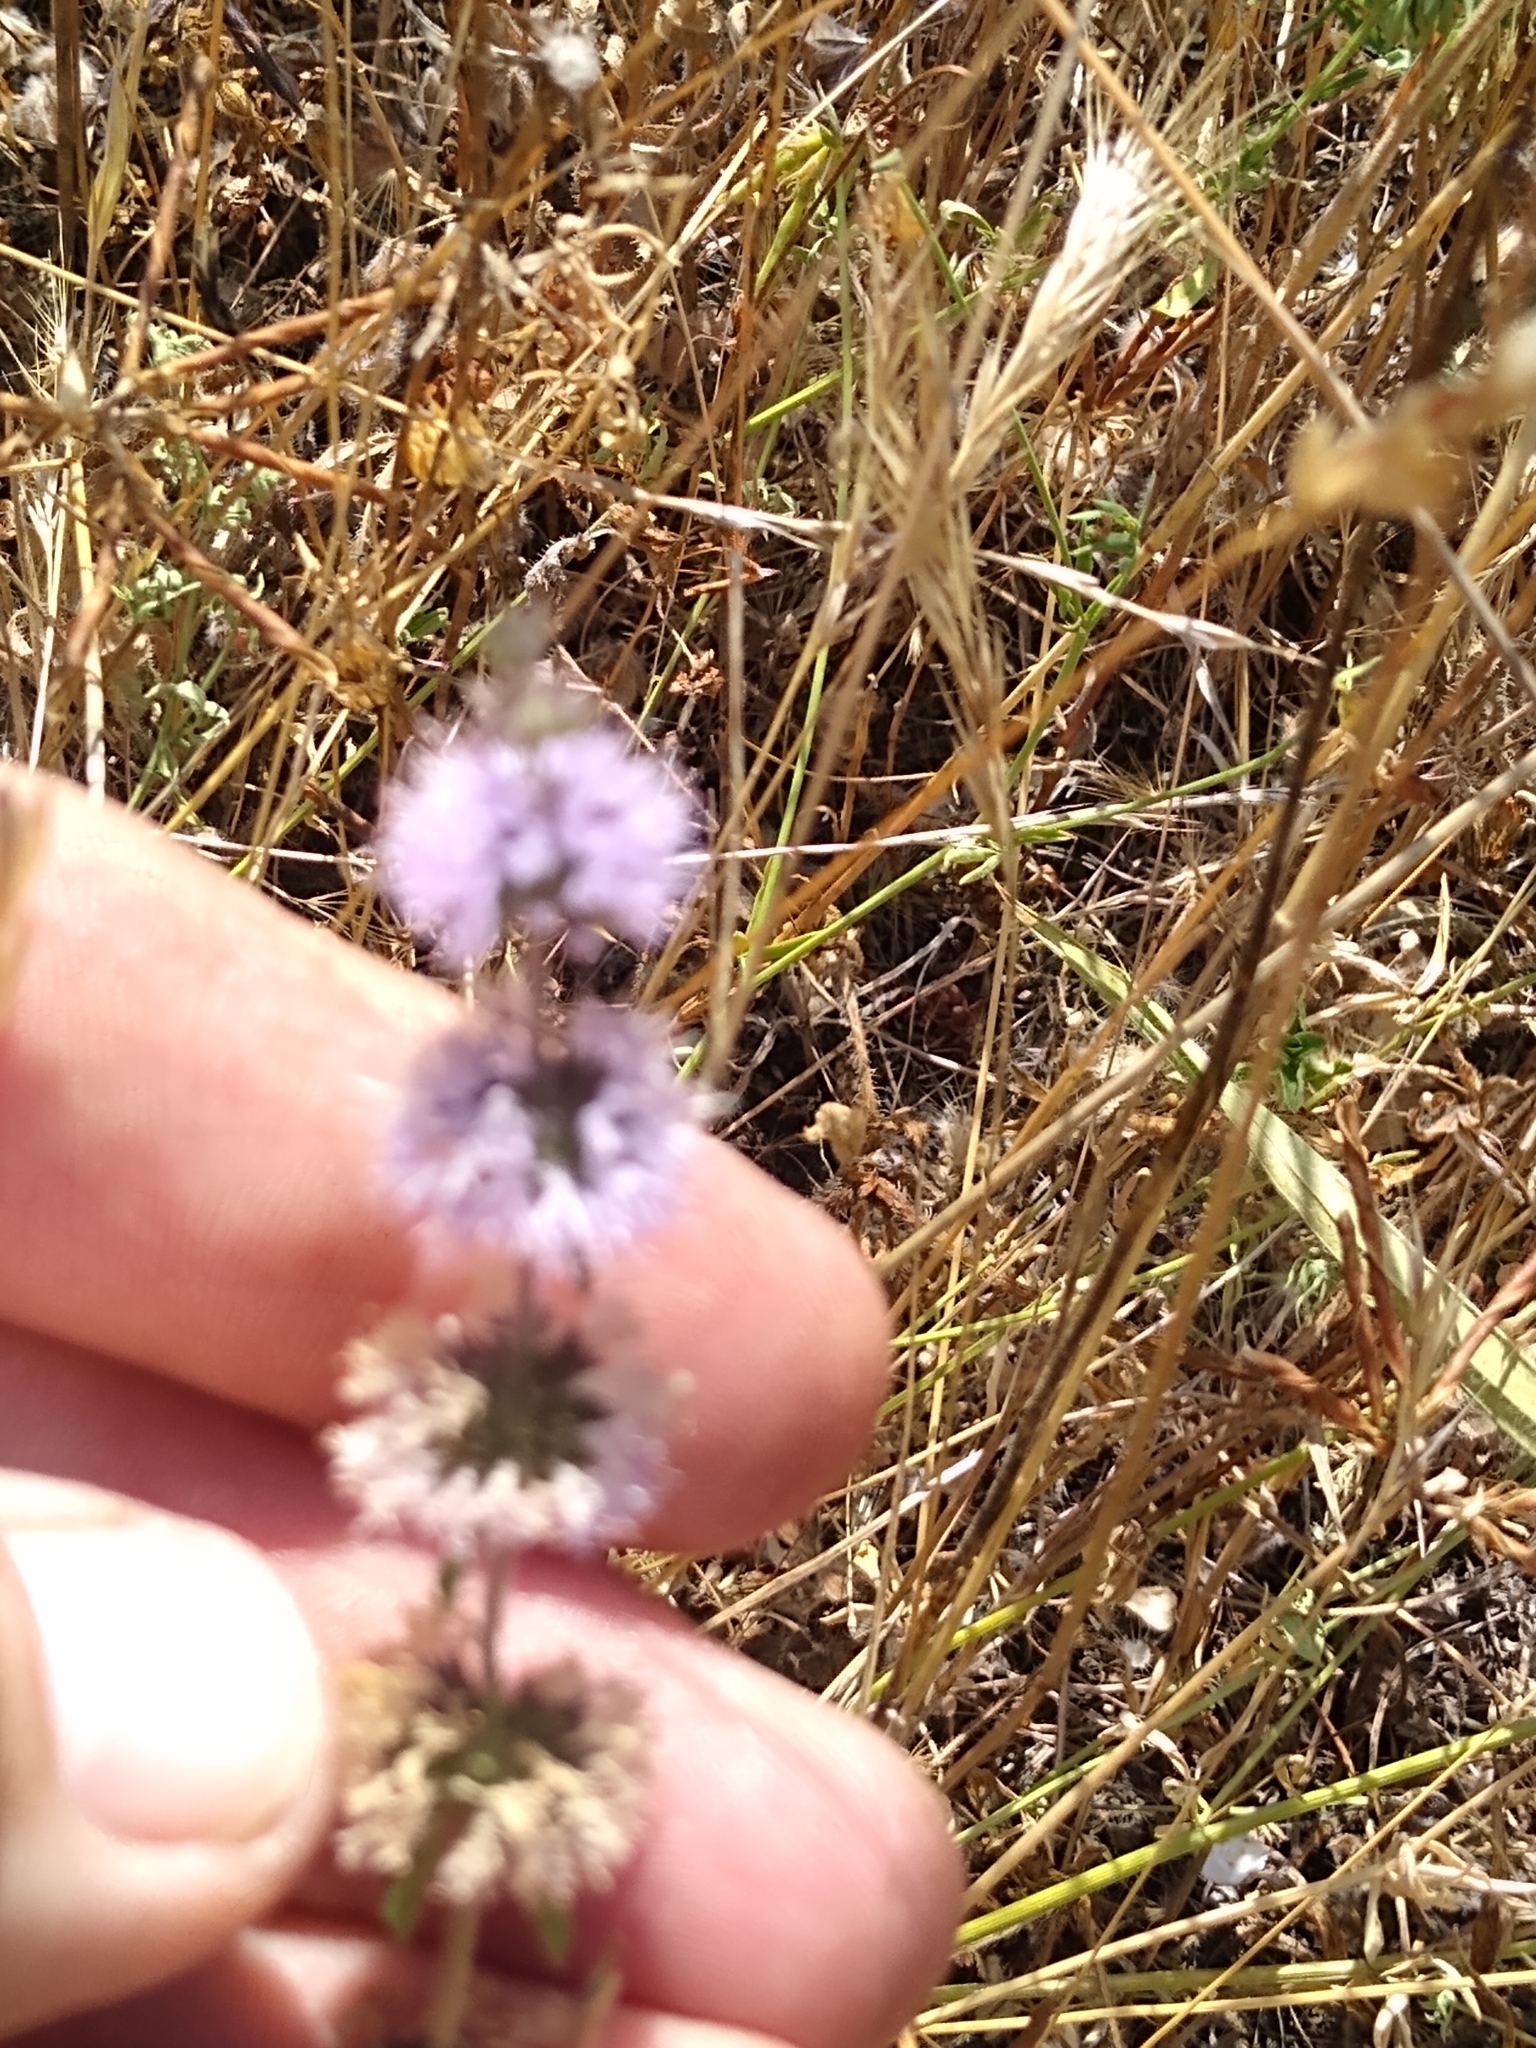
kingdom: Plantae
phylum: Tracheophyta
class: Magnoliopsida
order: Lamiales
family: Lamiaceae
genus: Mentha
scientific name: Mentha pulegium
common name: Pennyroyal
